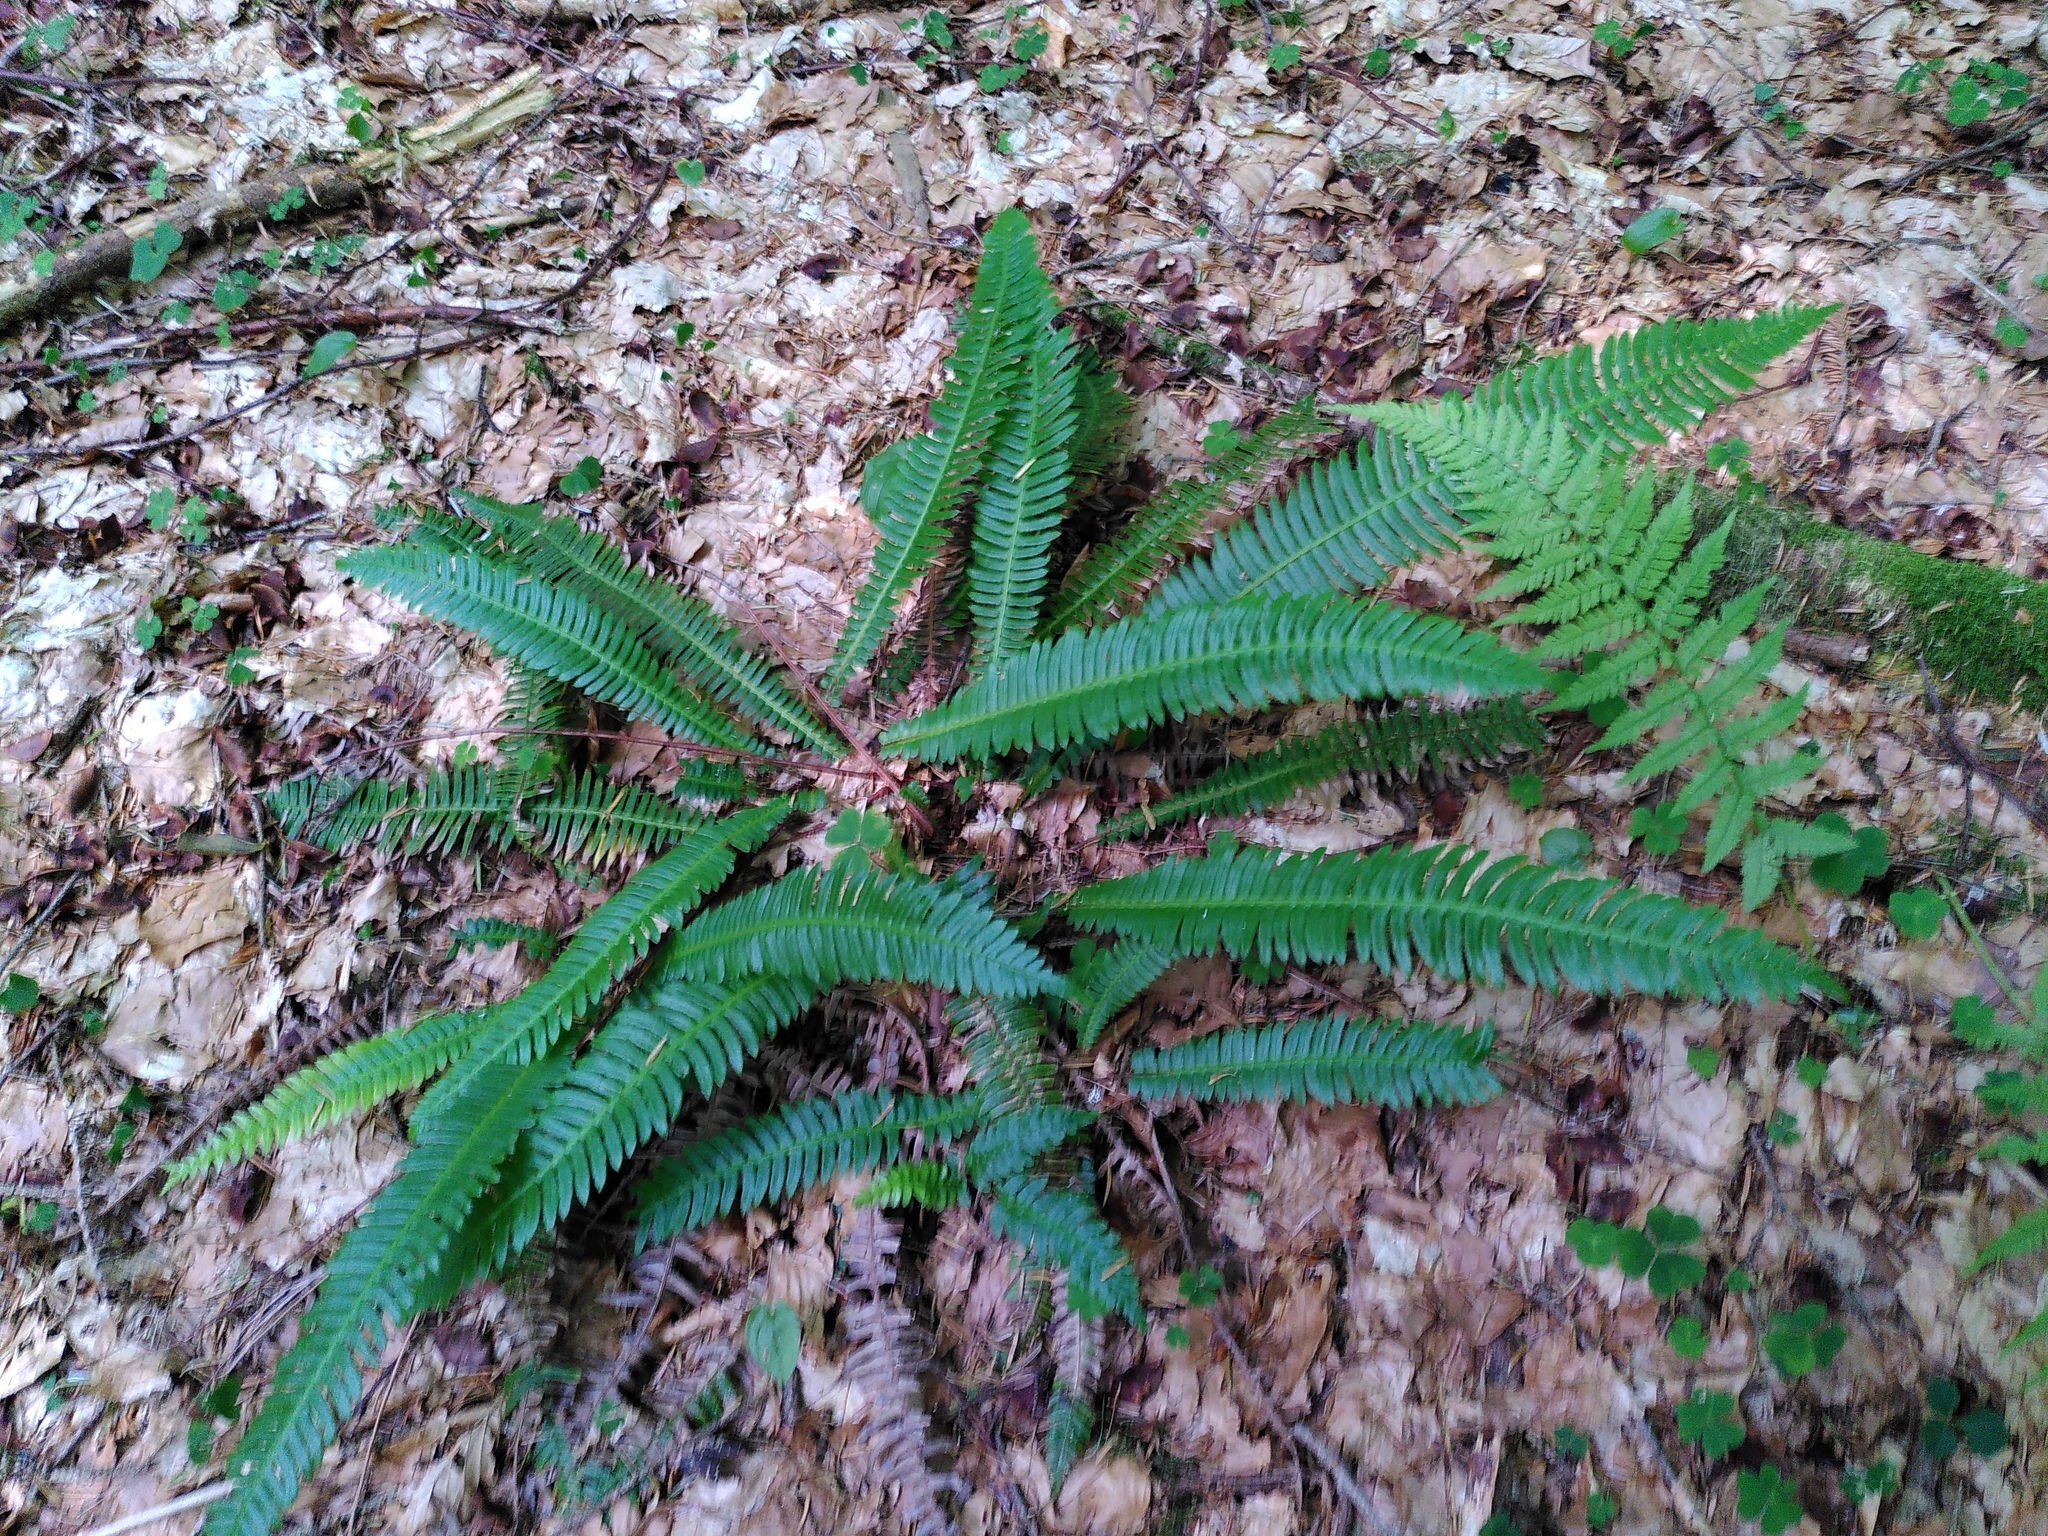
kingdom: Plantae
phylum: Tracheophyta
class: Polypodiopsida
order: Polypodiales
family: Blechnaceae
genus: Struthiopteris
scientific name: Struthiopteris spicant
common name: Deer fern
